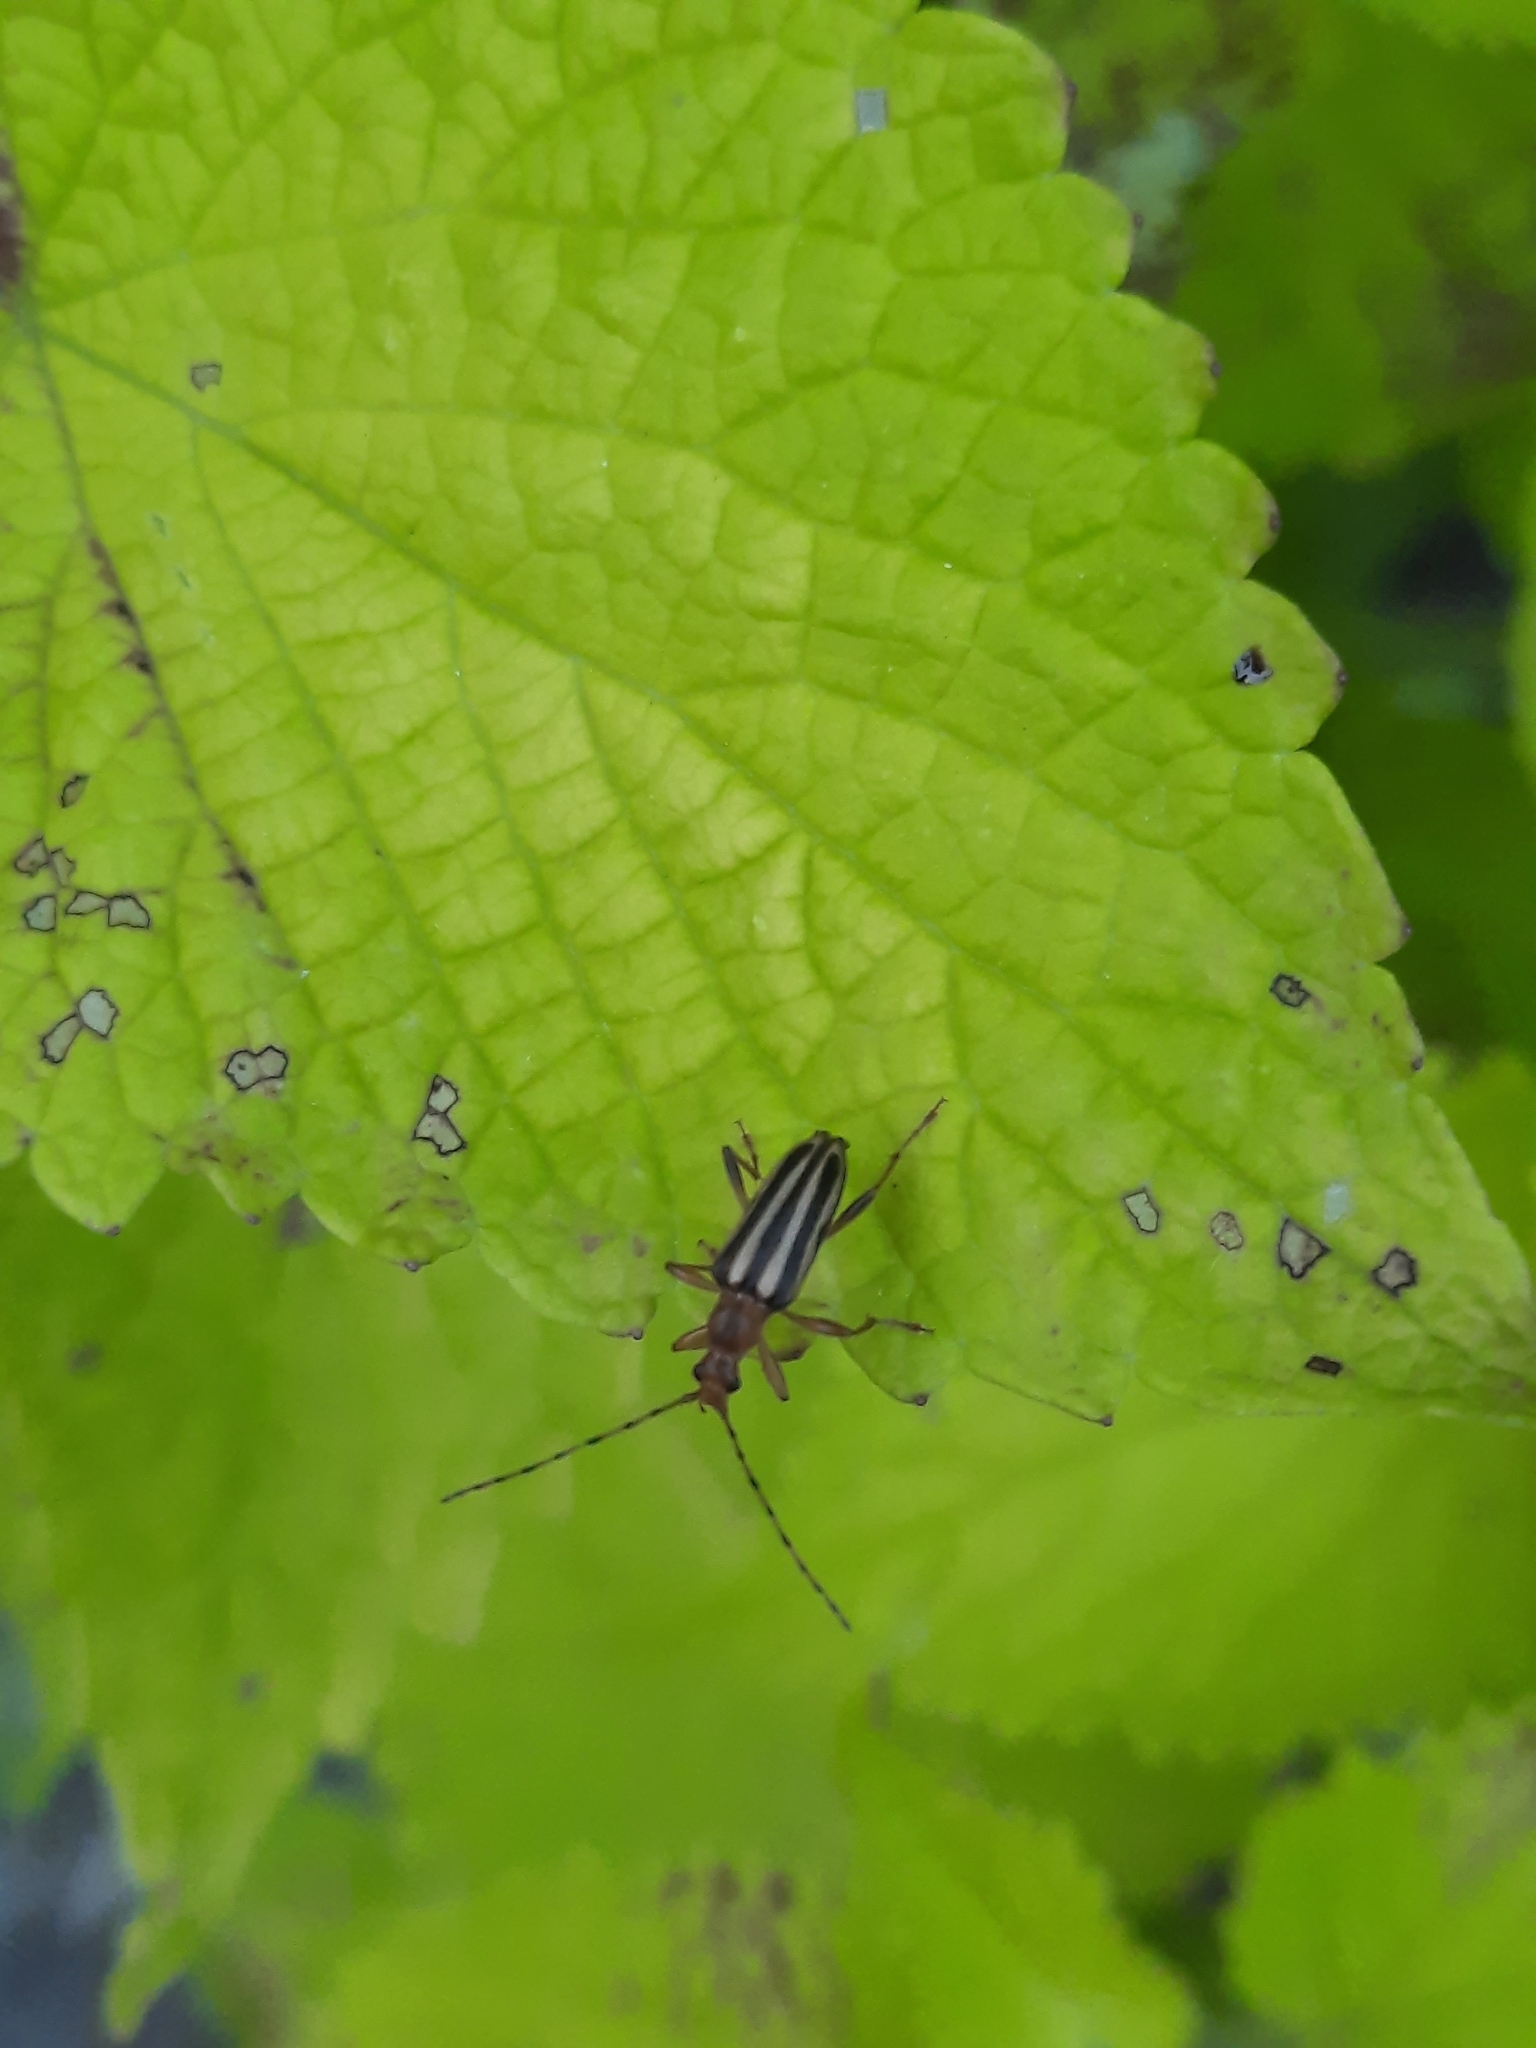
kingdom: Animalia
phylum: Arthropoda
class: Insecta
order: Coleoptera
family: Cerambycidae
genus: Metacmaeops
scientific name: Metacmaeops vittata
